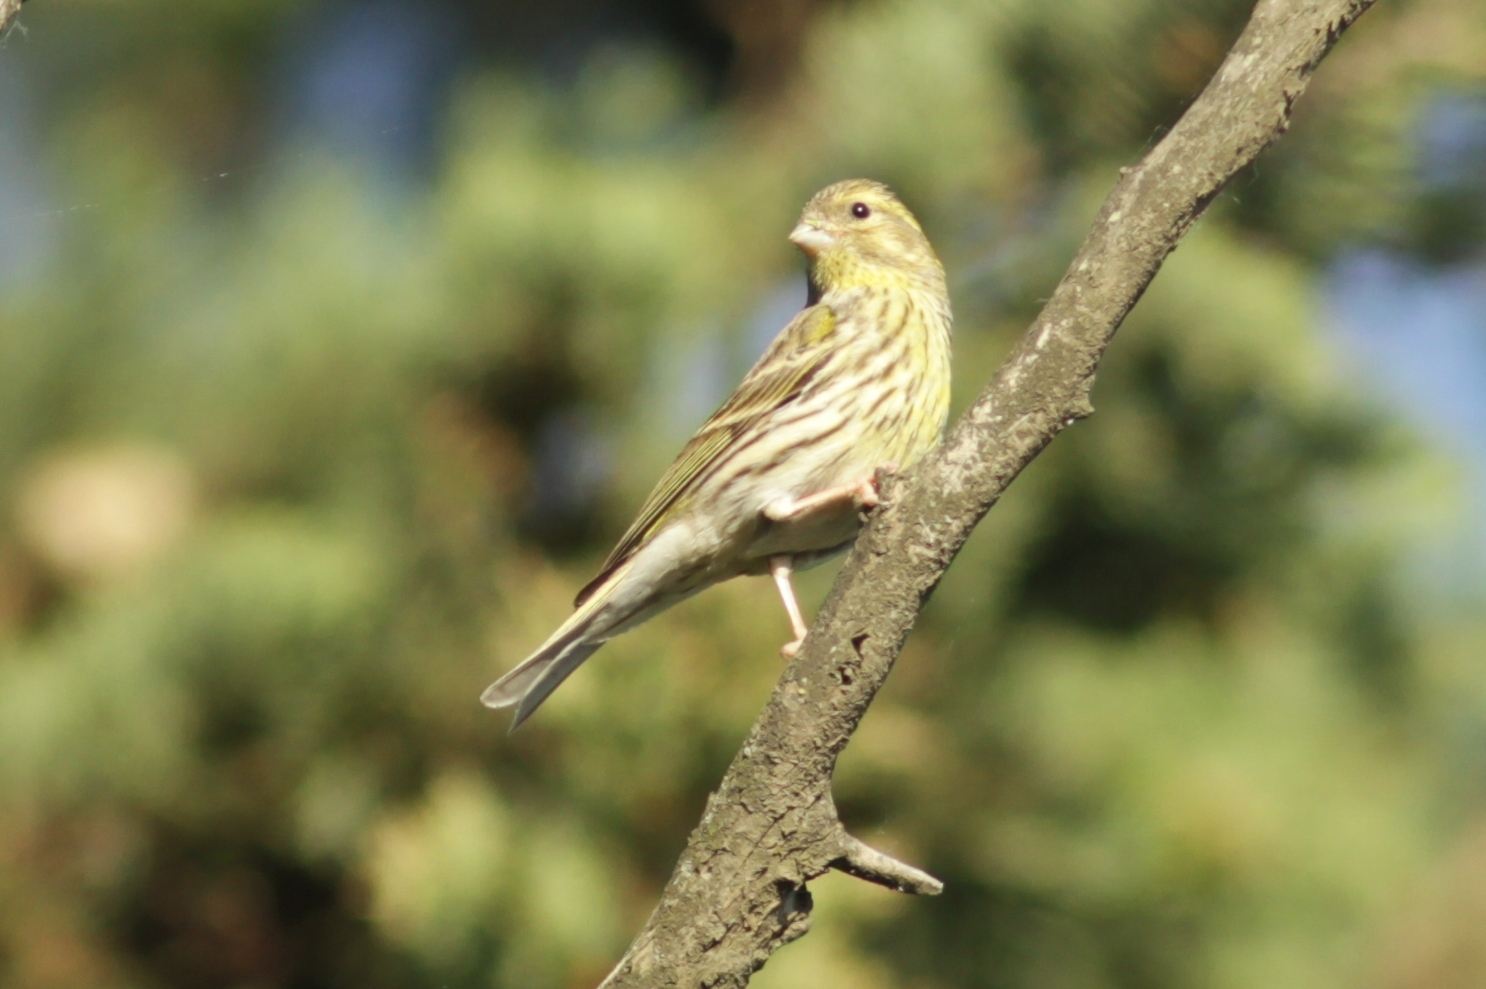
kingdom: Animalia
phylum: Chordata
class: Aves
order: Passeriformes
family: Fringillidae
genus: Serinus
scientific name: Serinus serinus
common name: European serin
